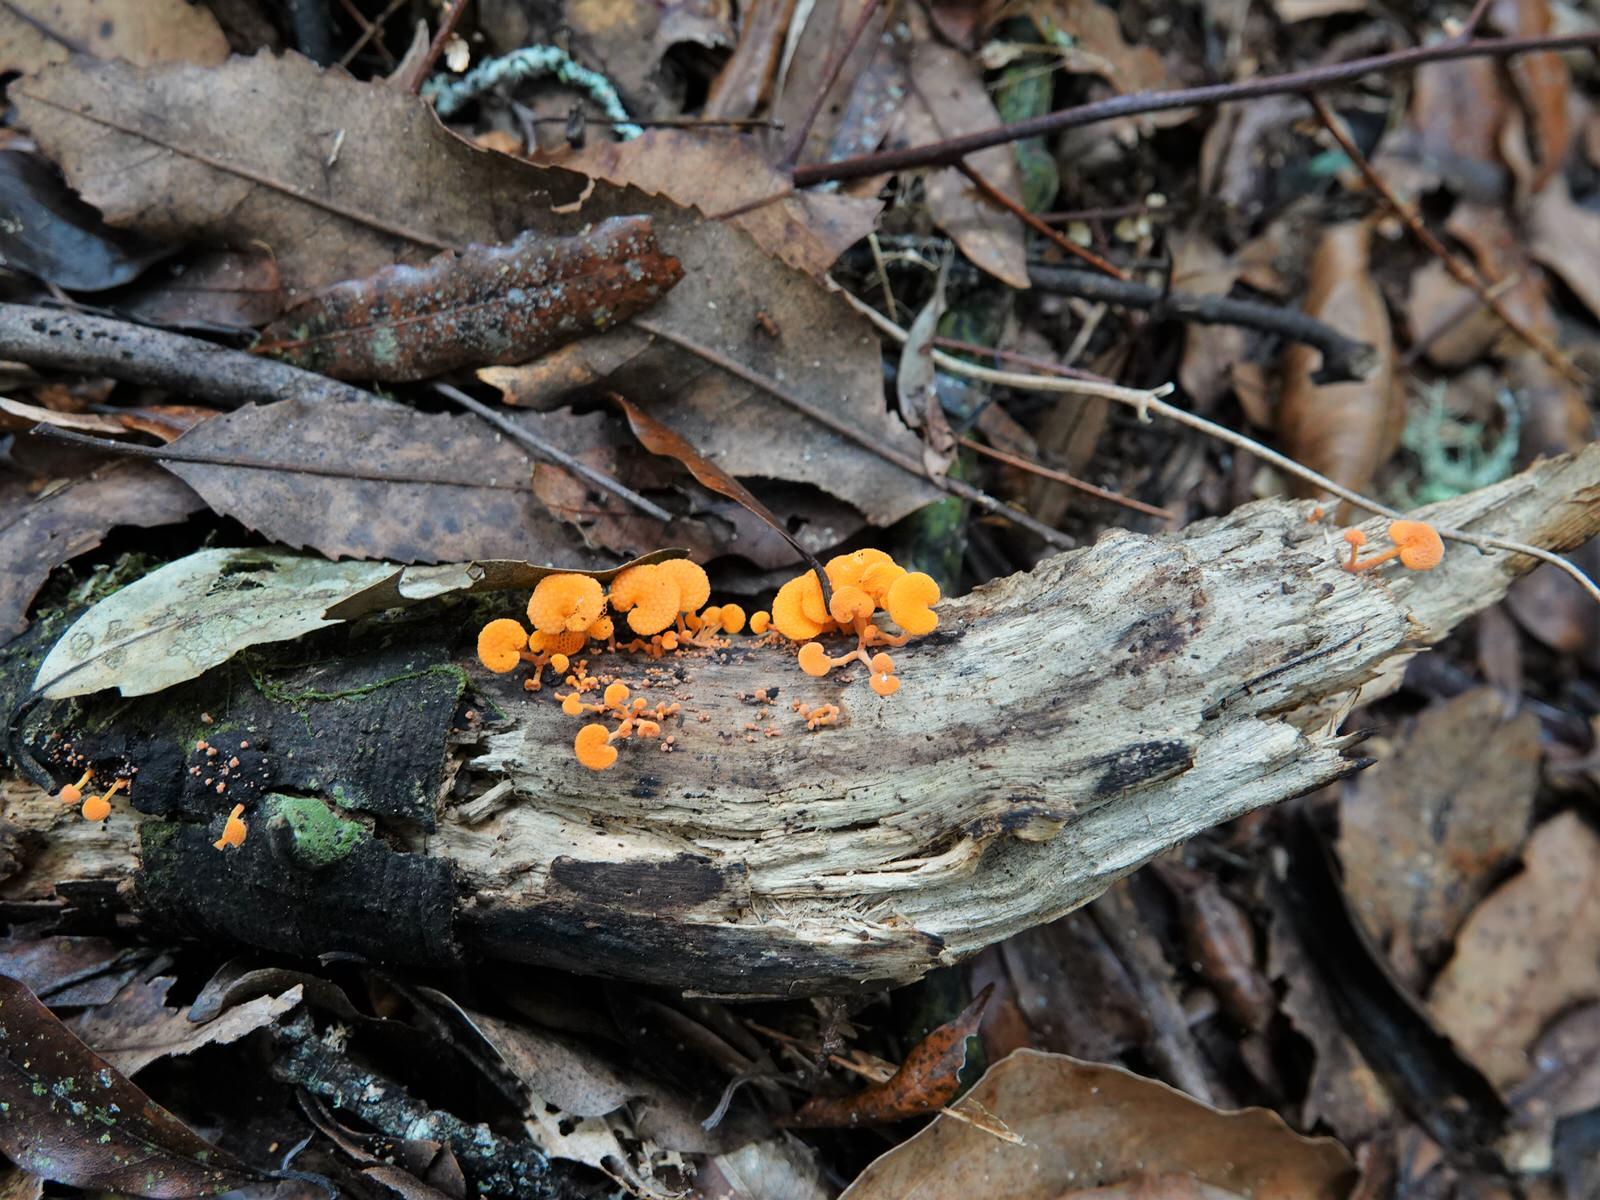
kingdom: Fungi
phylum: Basidiomycota
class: Agaricomycetes
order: Agaricales
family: Mycenaceae
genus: Favolaschia
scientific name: Favolaschia claudopus
